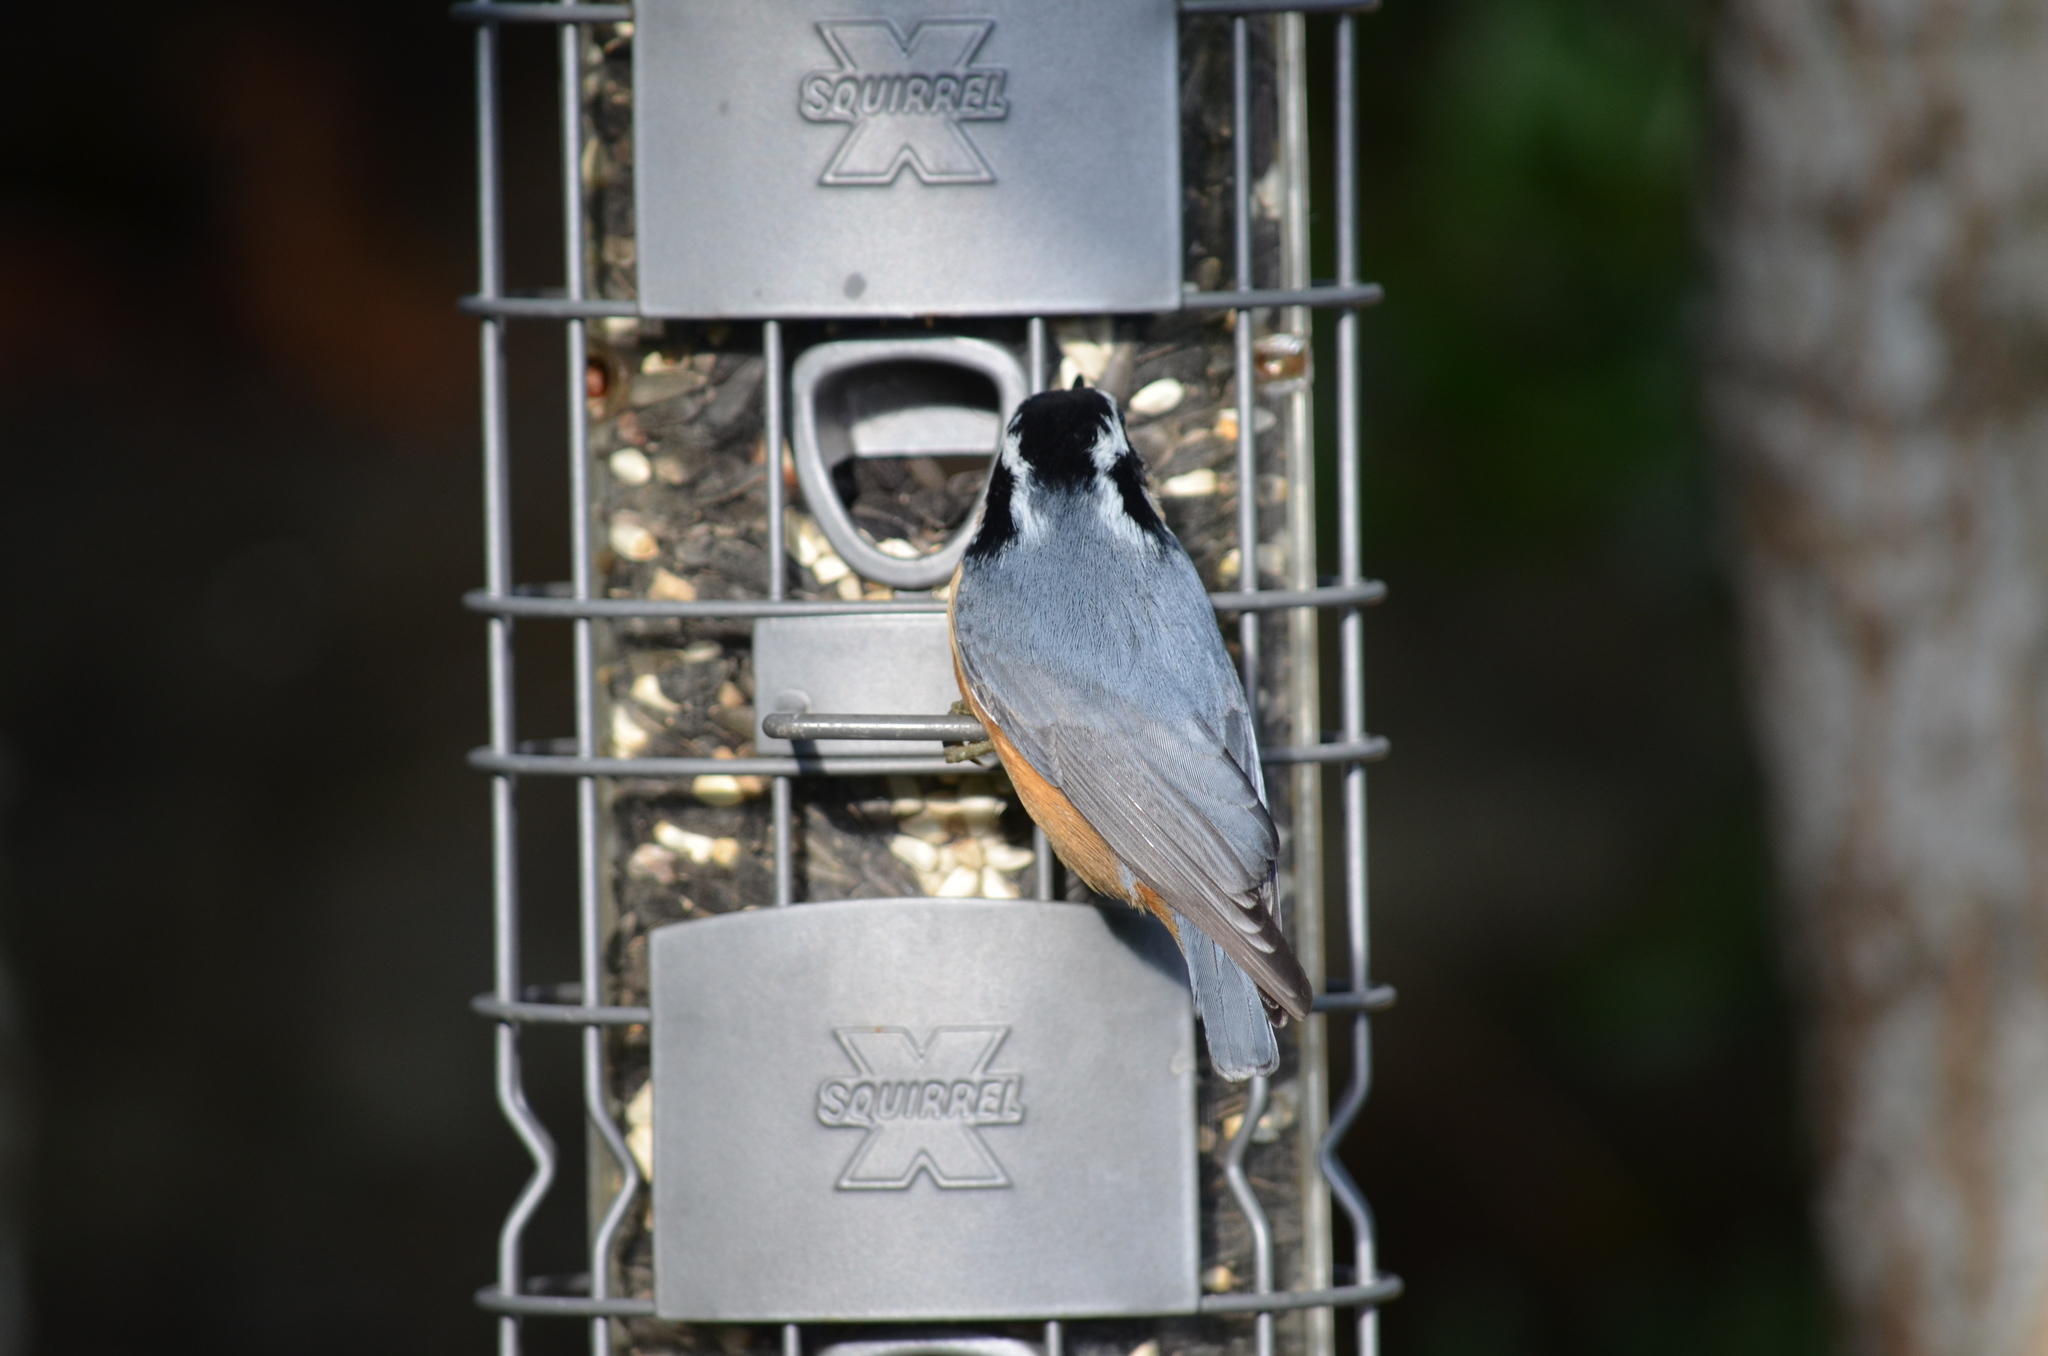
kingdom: Animalia
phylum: Chordata
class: Aves
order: Passeriformes
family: Sittidae
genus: Sitta
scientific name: Sitta canadensis
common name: Red-breasted nuthatch
